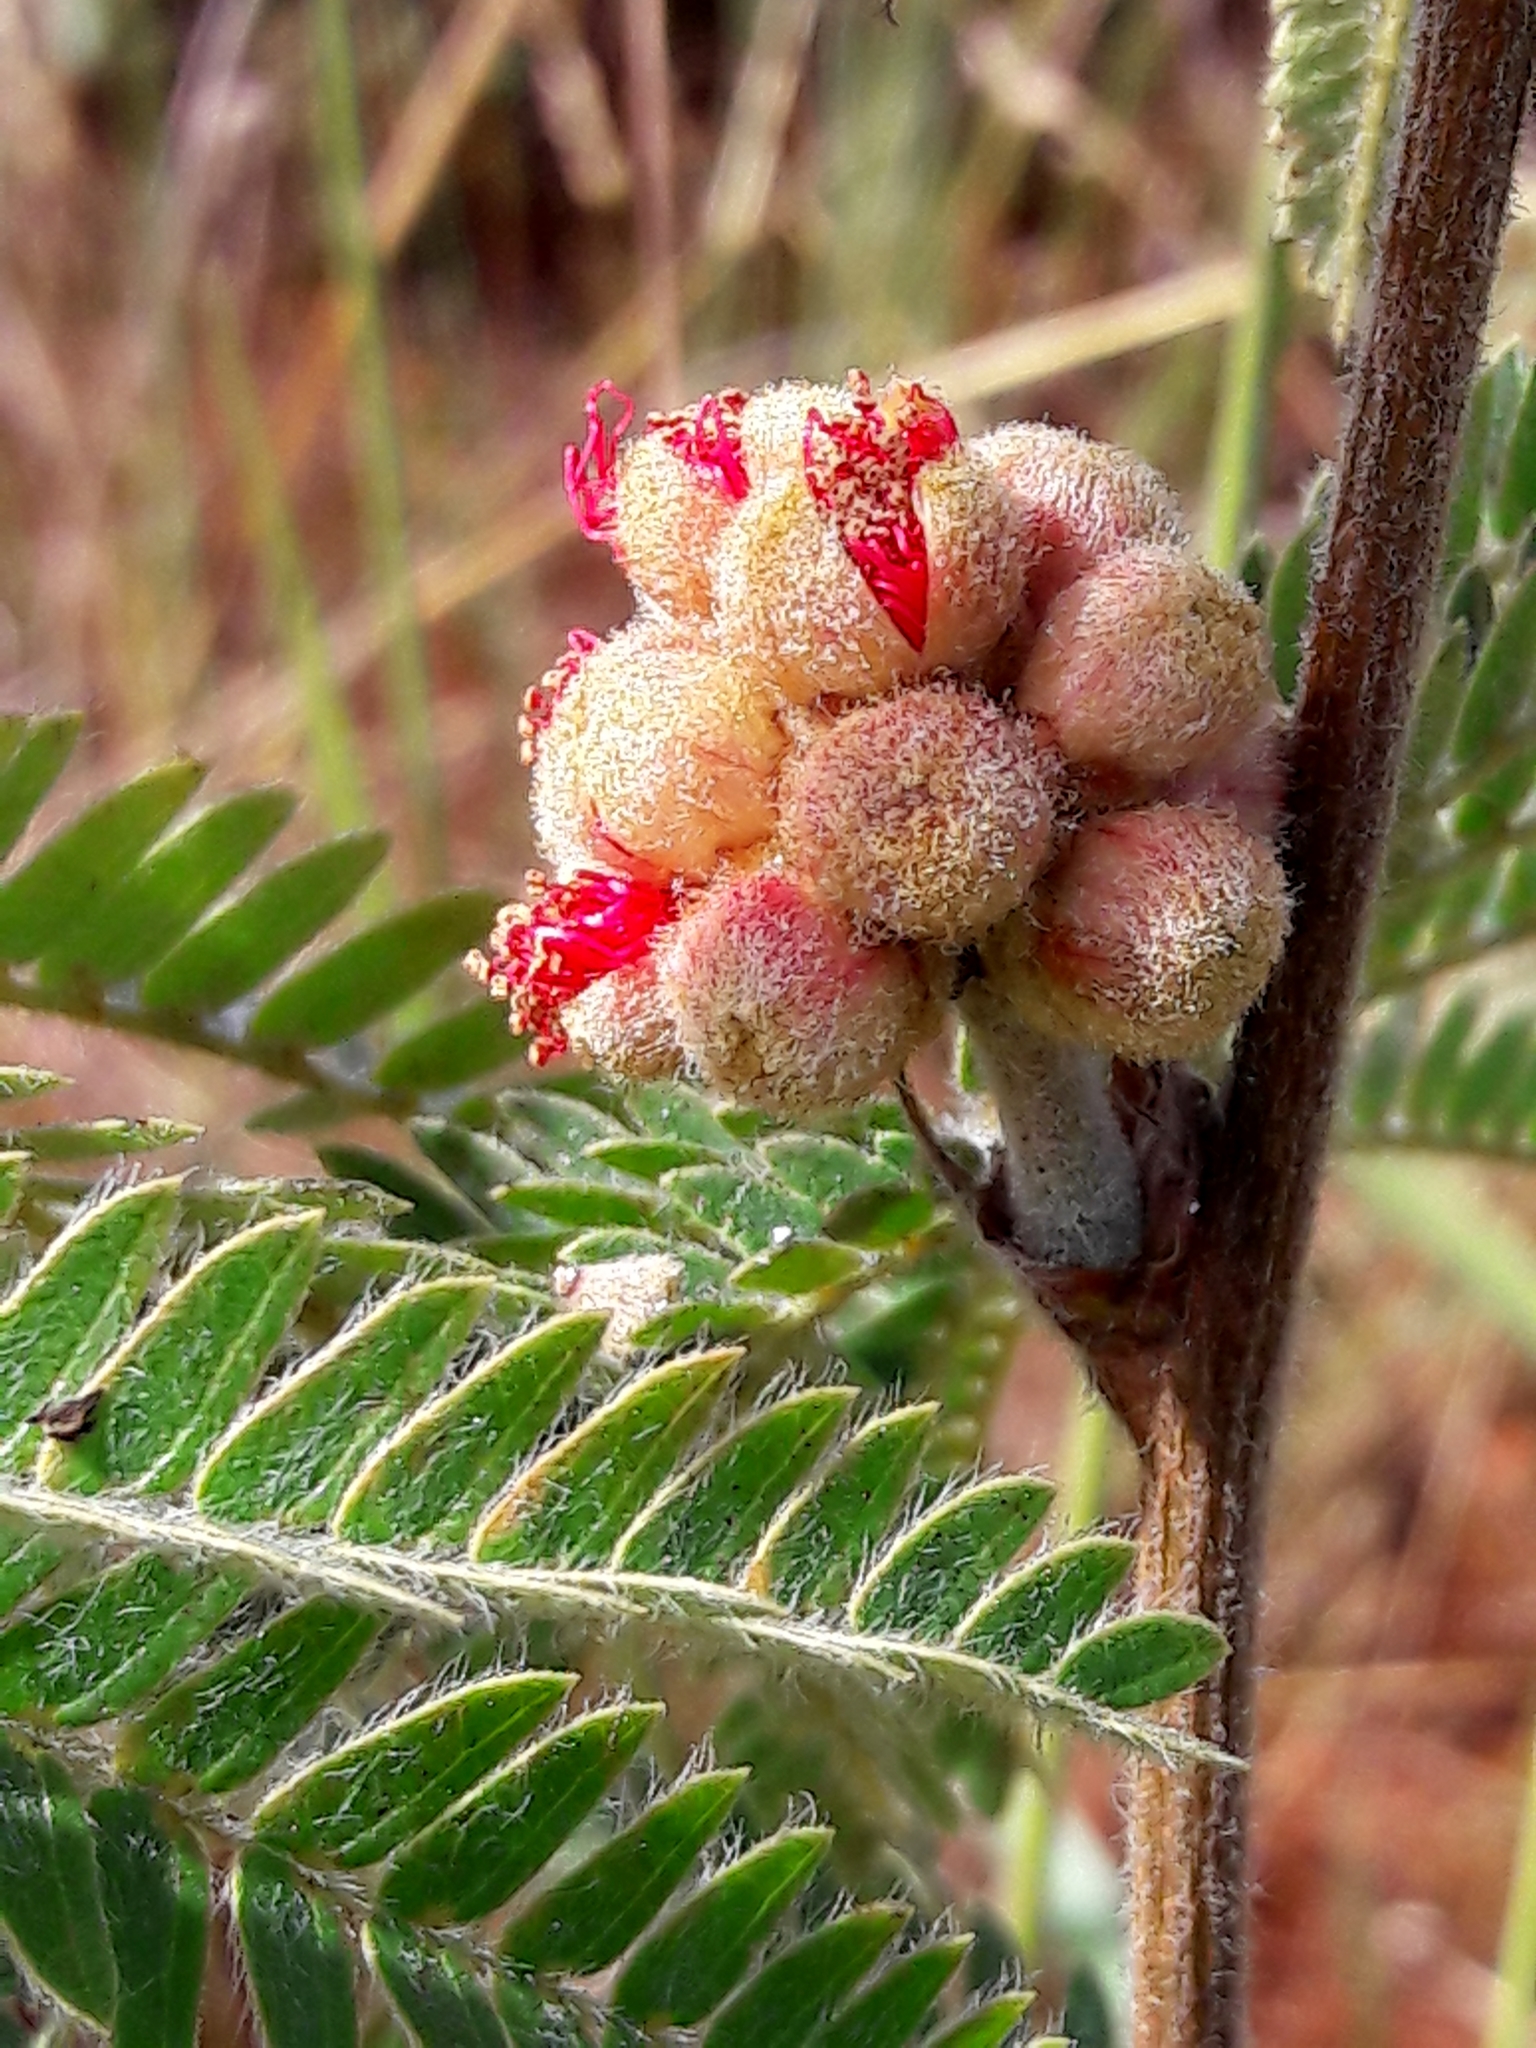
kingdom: Plantae
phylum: Tracheophyta
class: Magnoliopsida
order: Fabales
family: Fabaceae
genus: Calliandra
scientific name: Calliandra dysantha
